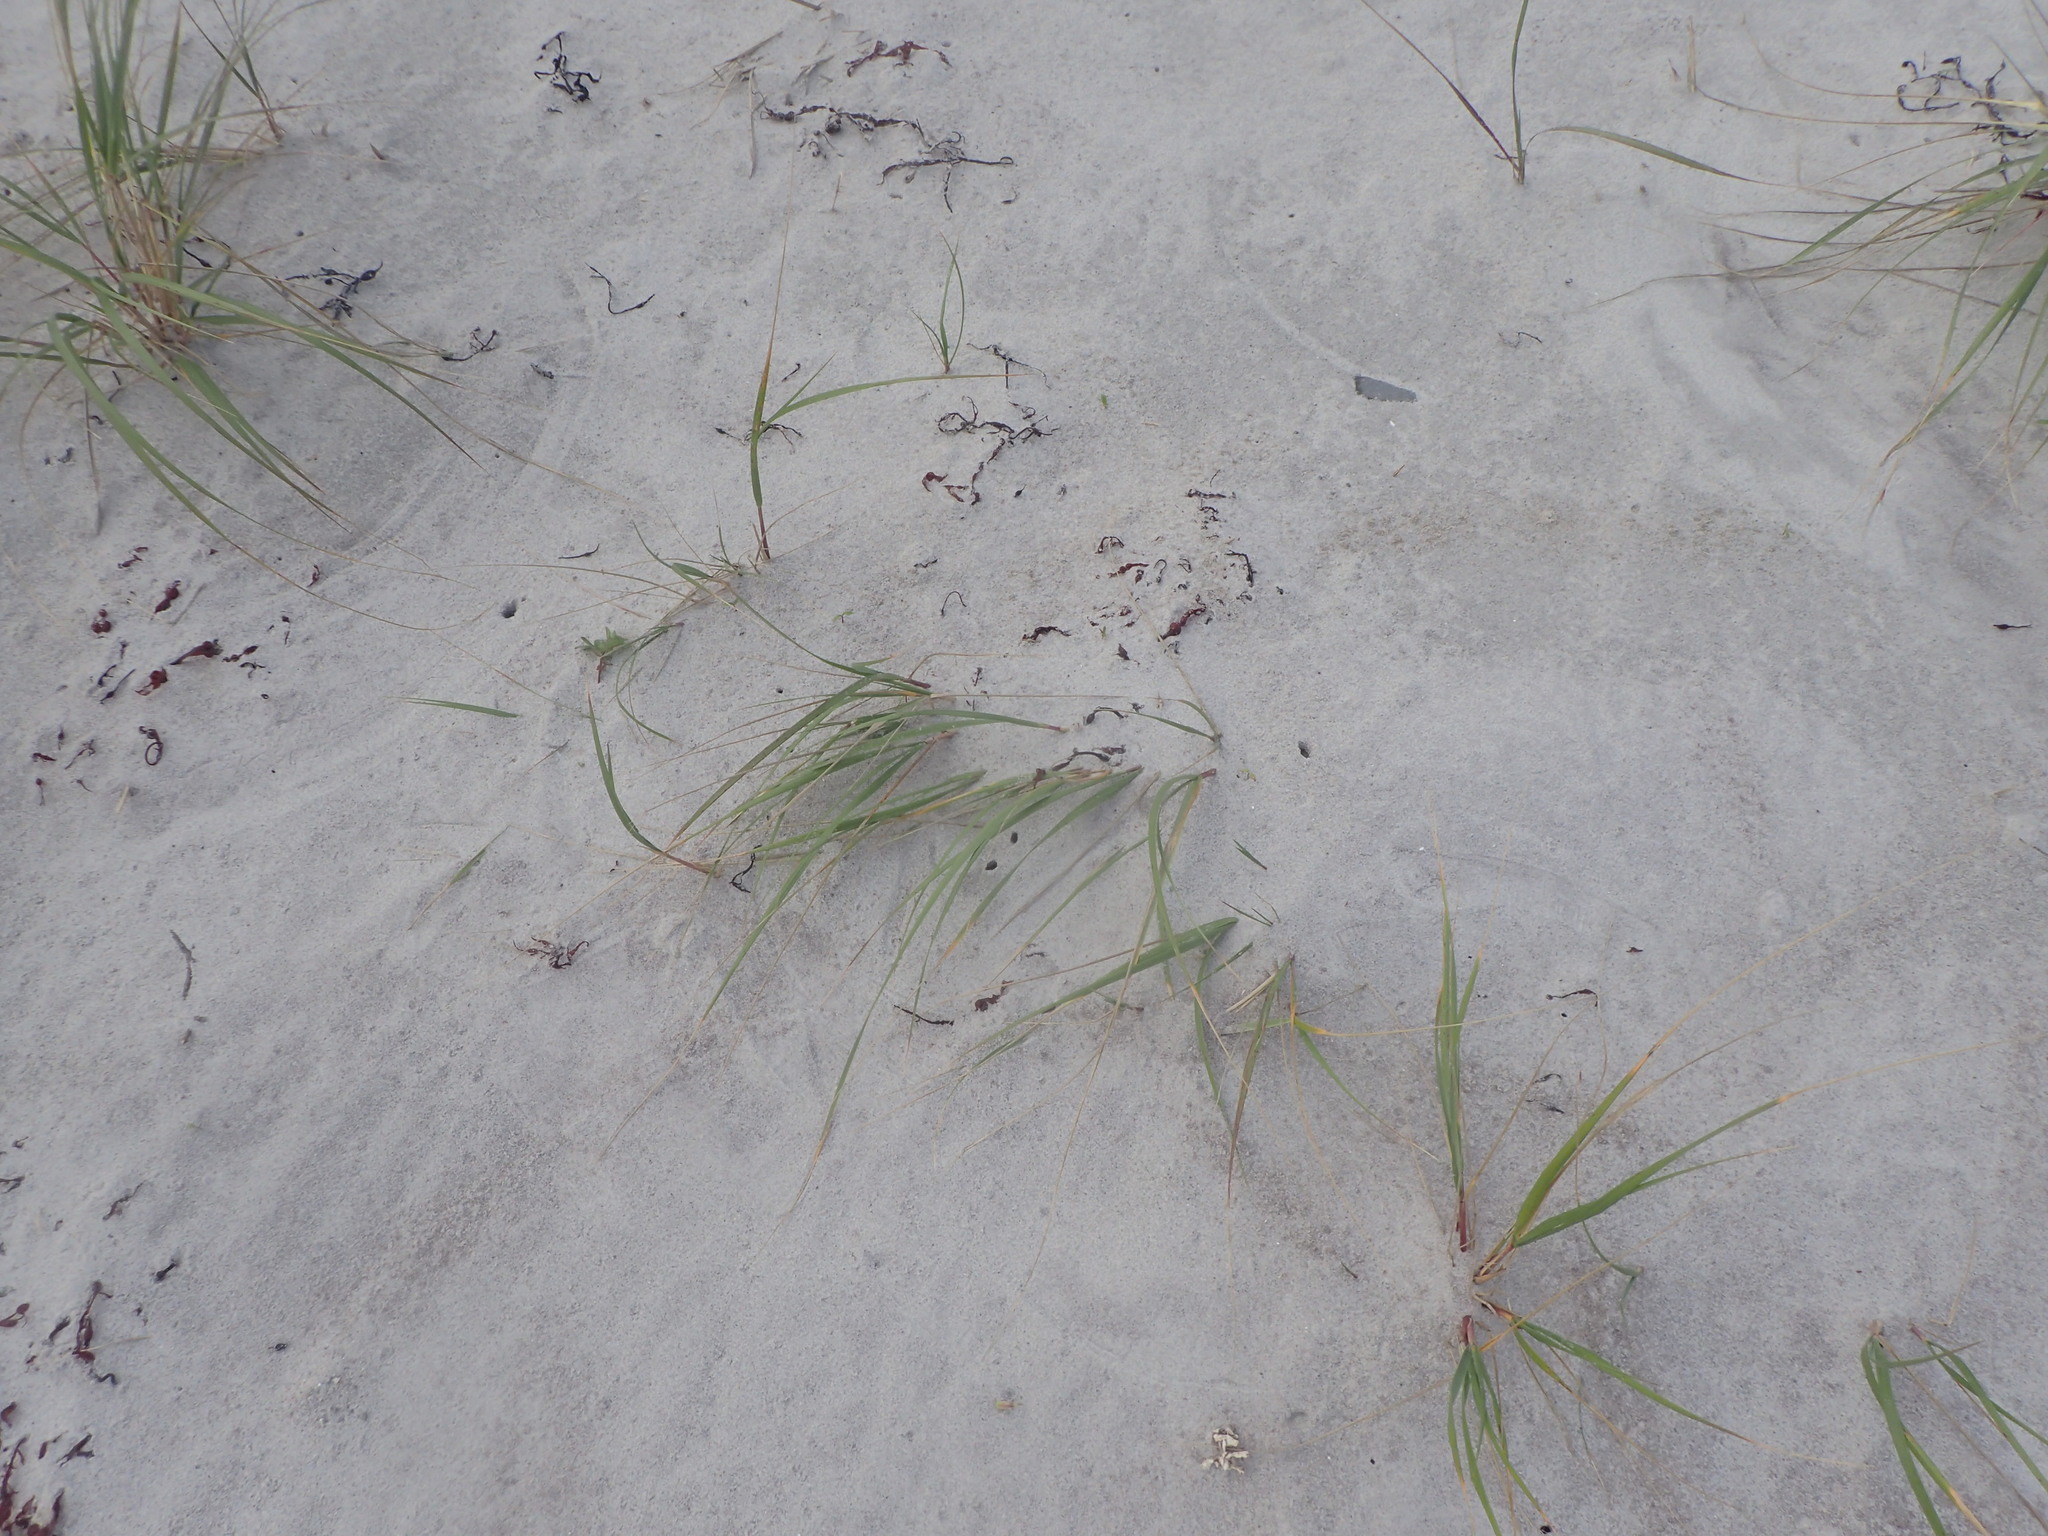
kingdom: Plantae
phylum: Tracheophyta
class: Liliopsida
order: Poales
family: Poaceae
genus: Calamagrostis
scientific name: Calamagrostis breviligulata
